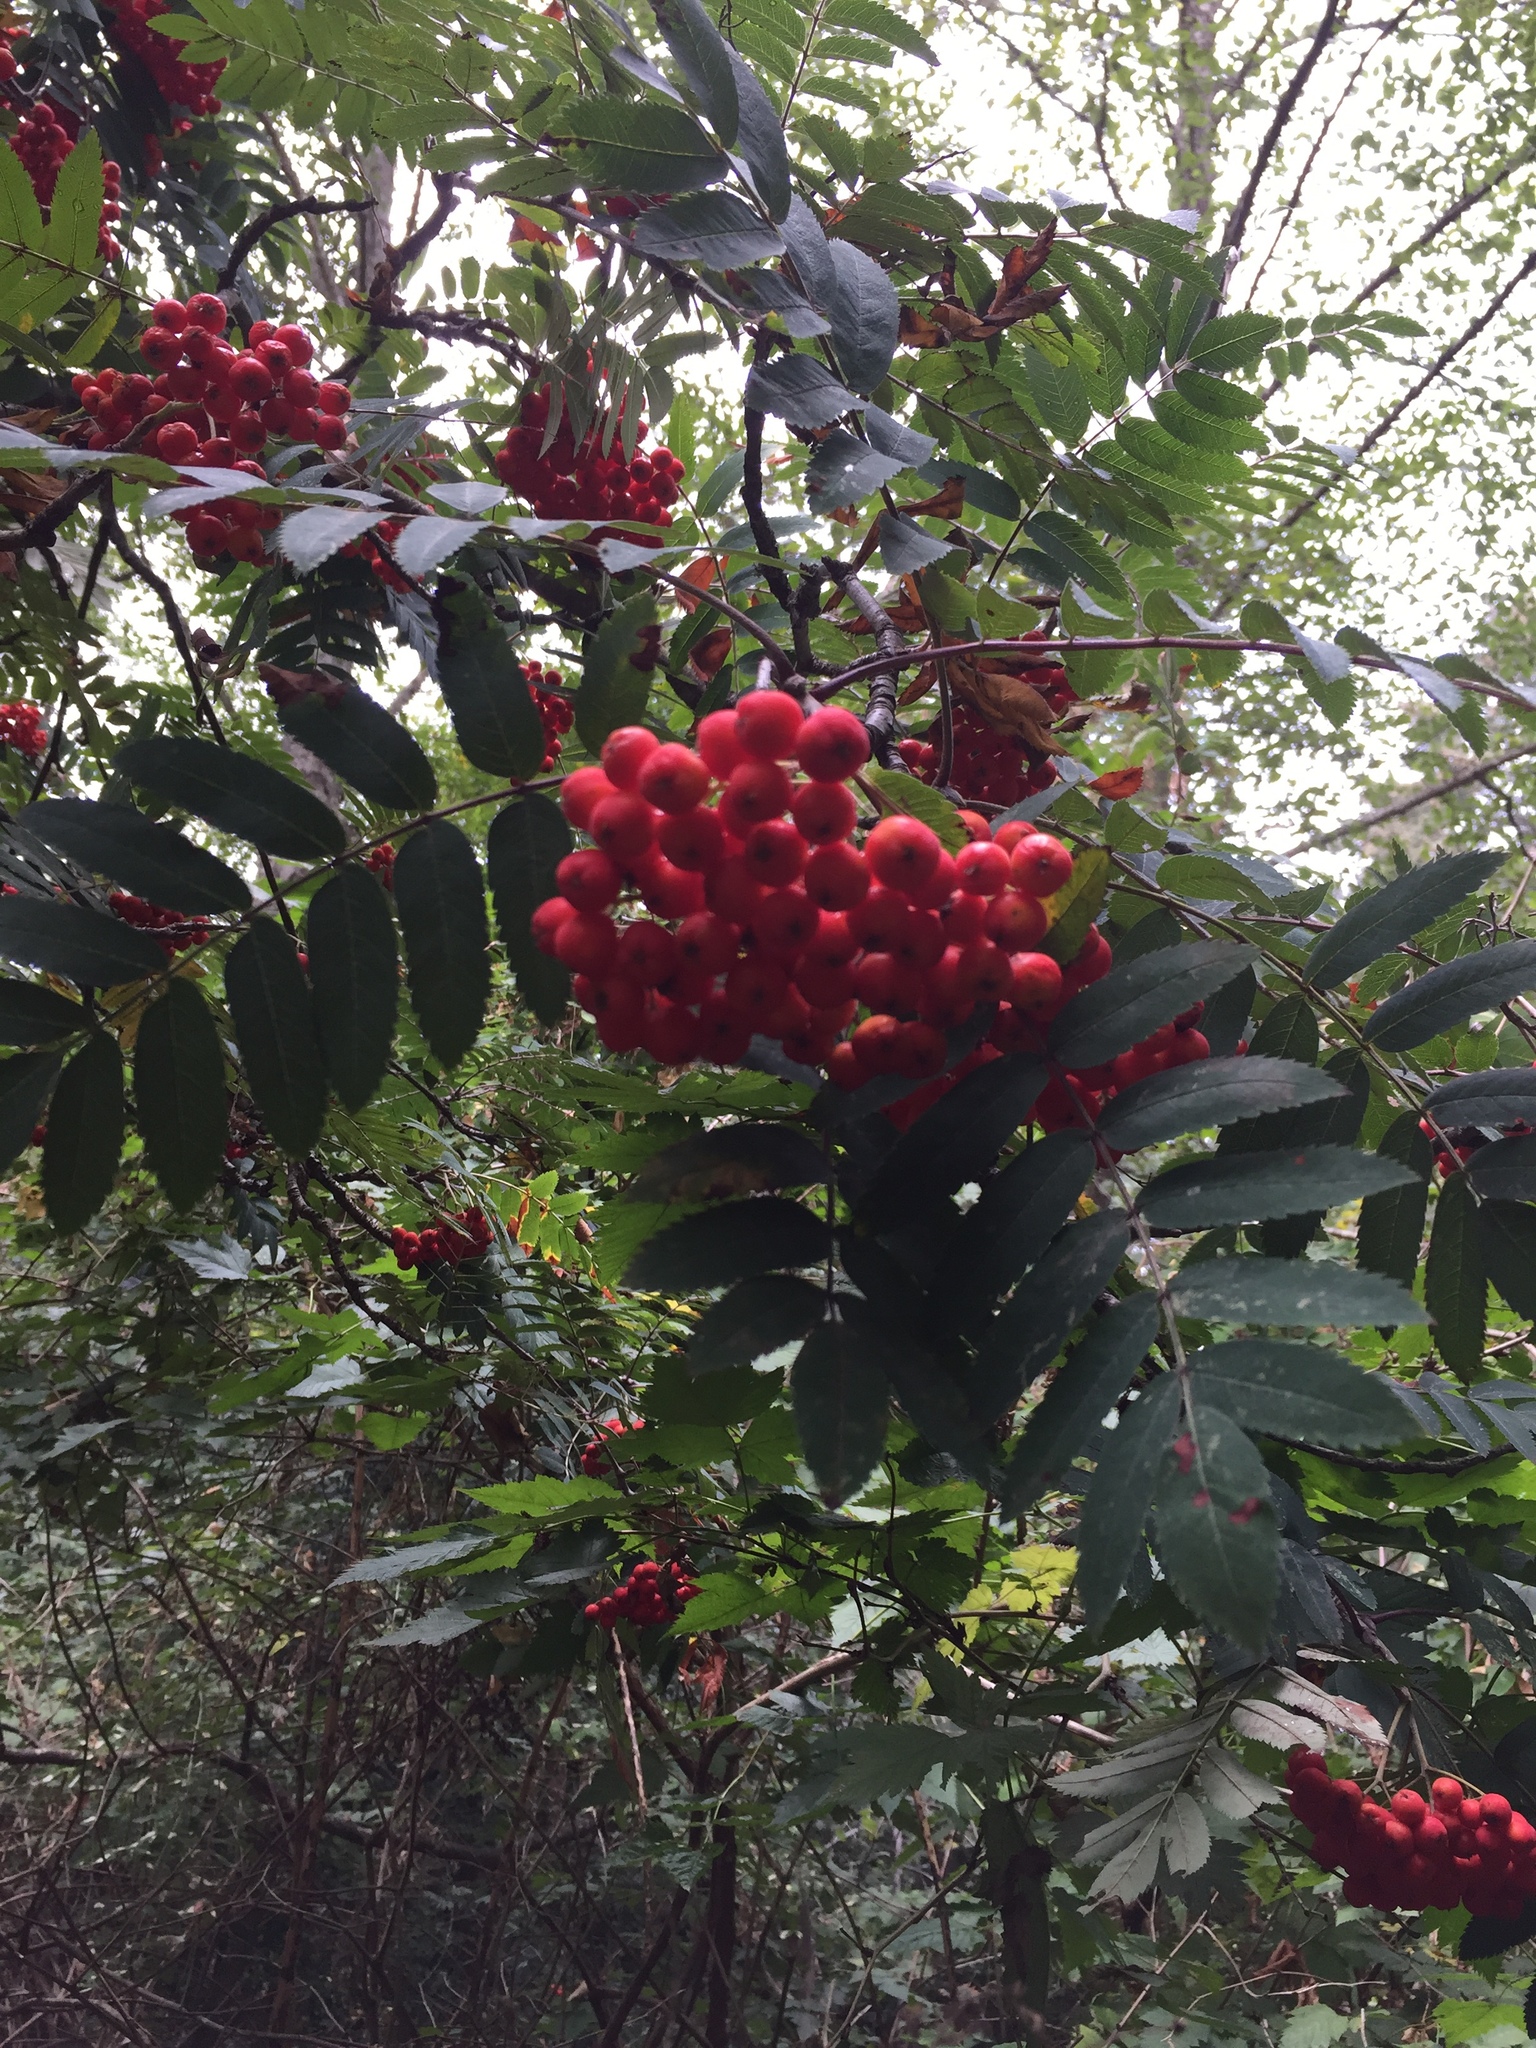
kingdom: Plantae
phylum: Tracheophyta
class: Magnoliopsida
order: Rosales
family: Rosaceae
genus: Sorbus
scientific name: Sorbus aucuparia
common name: Rowan
